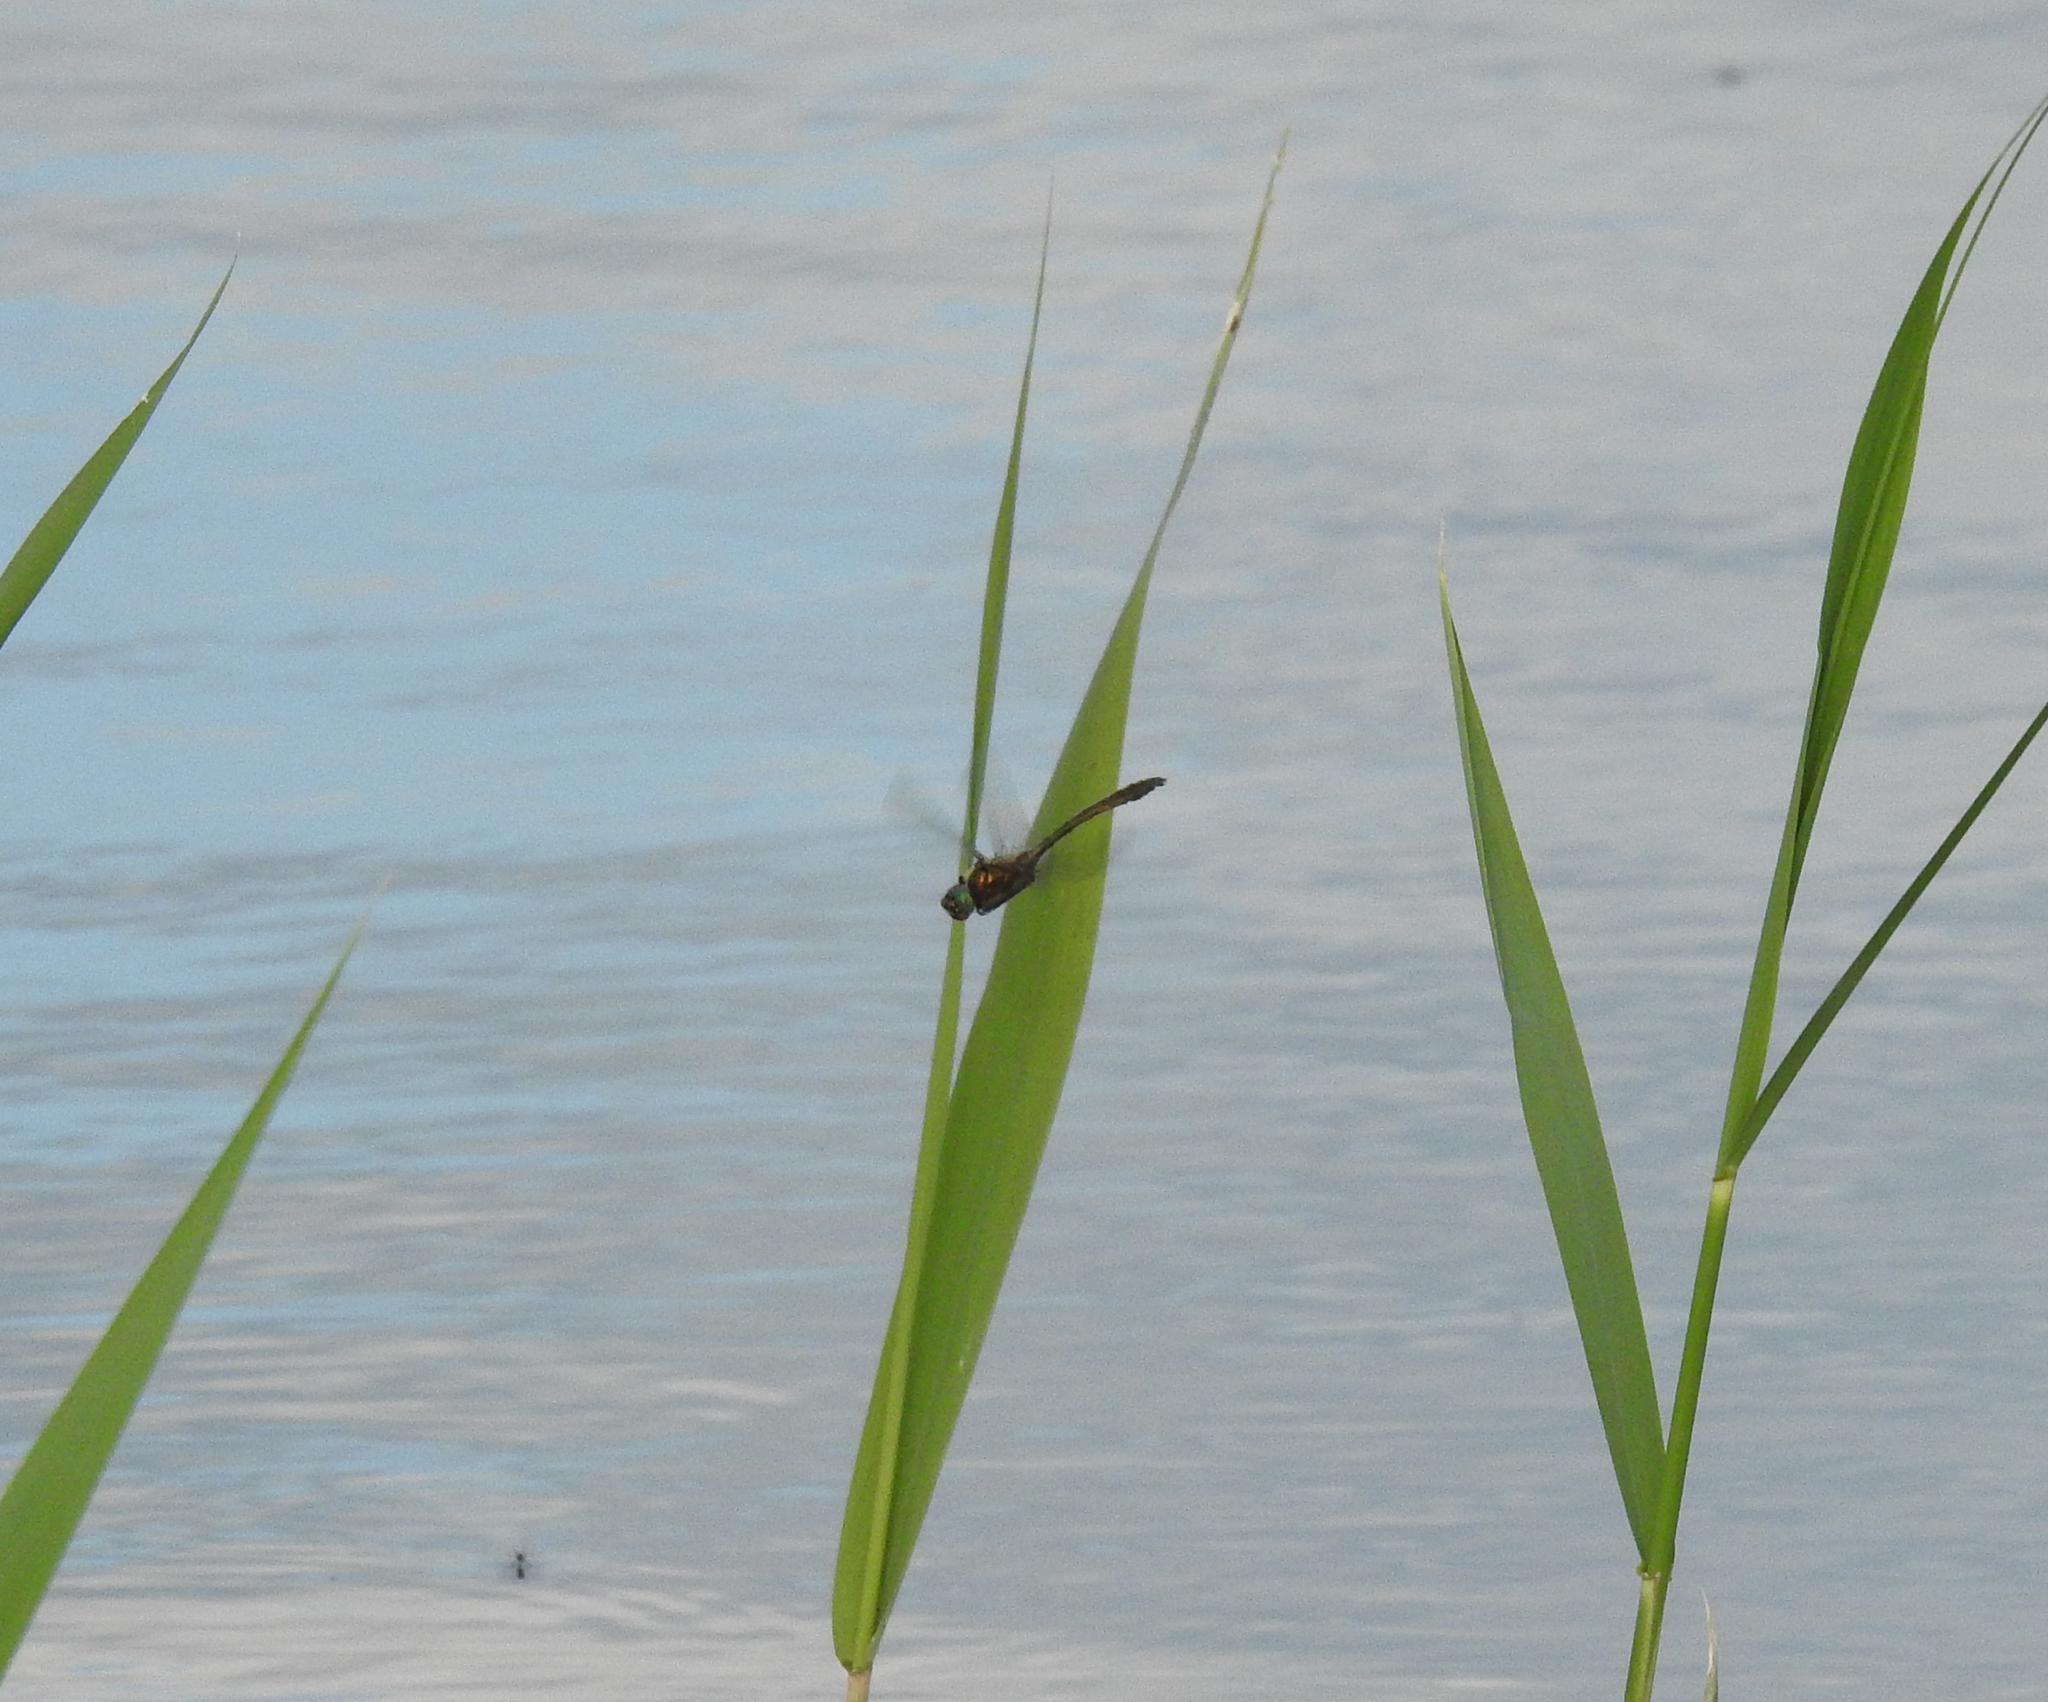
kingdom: Animalia
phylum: Arthropoda
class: Insecta
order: Odonata
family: Corduliidae
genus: Cordulia
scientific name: Cordulia aenea
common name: Downy emerald
